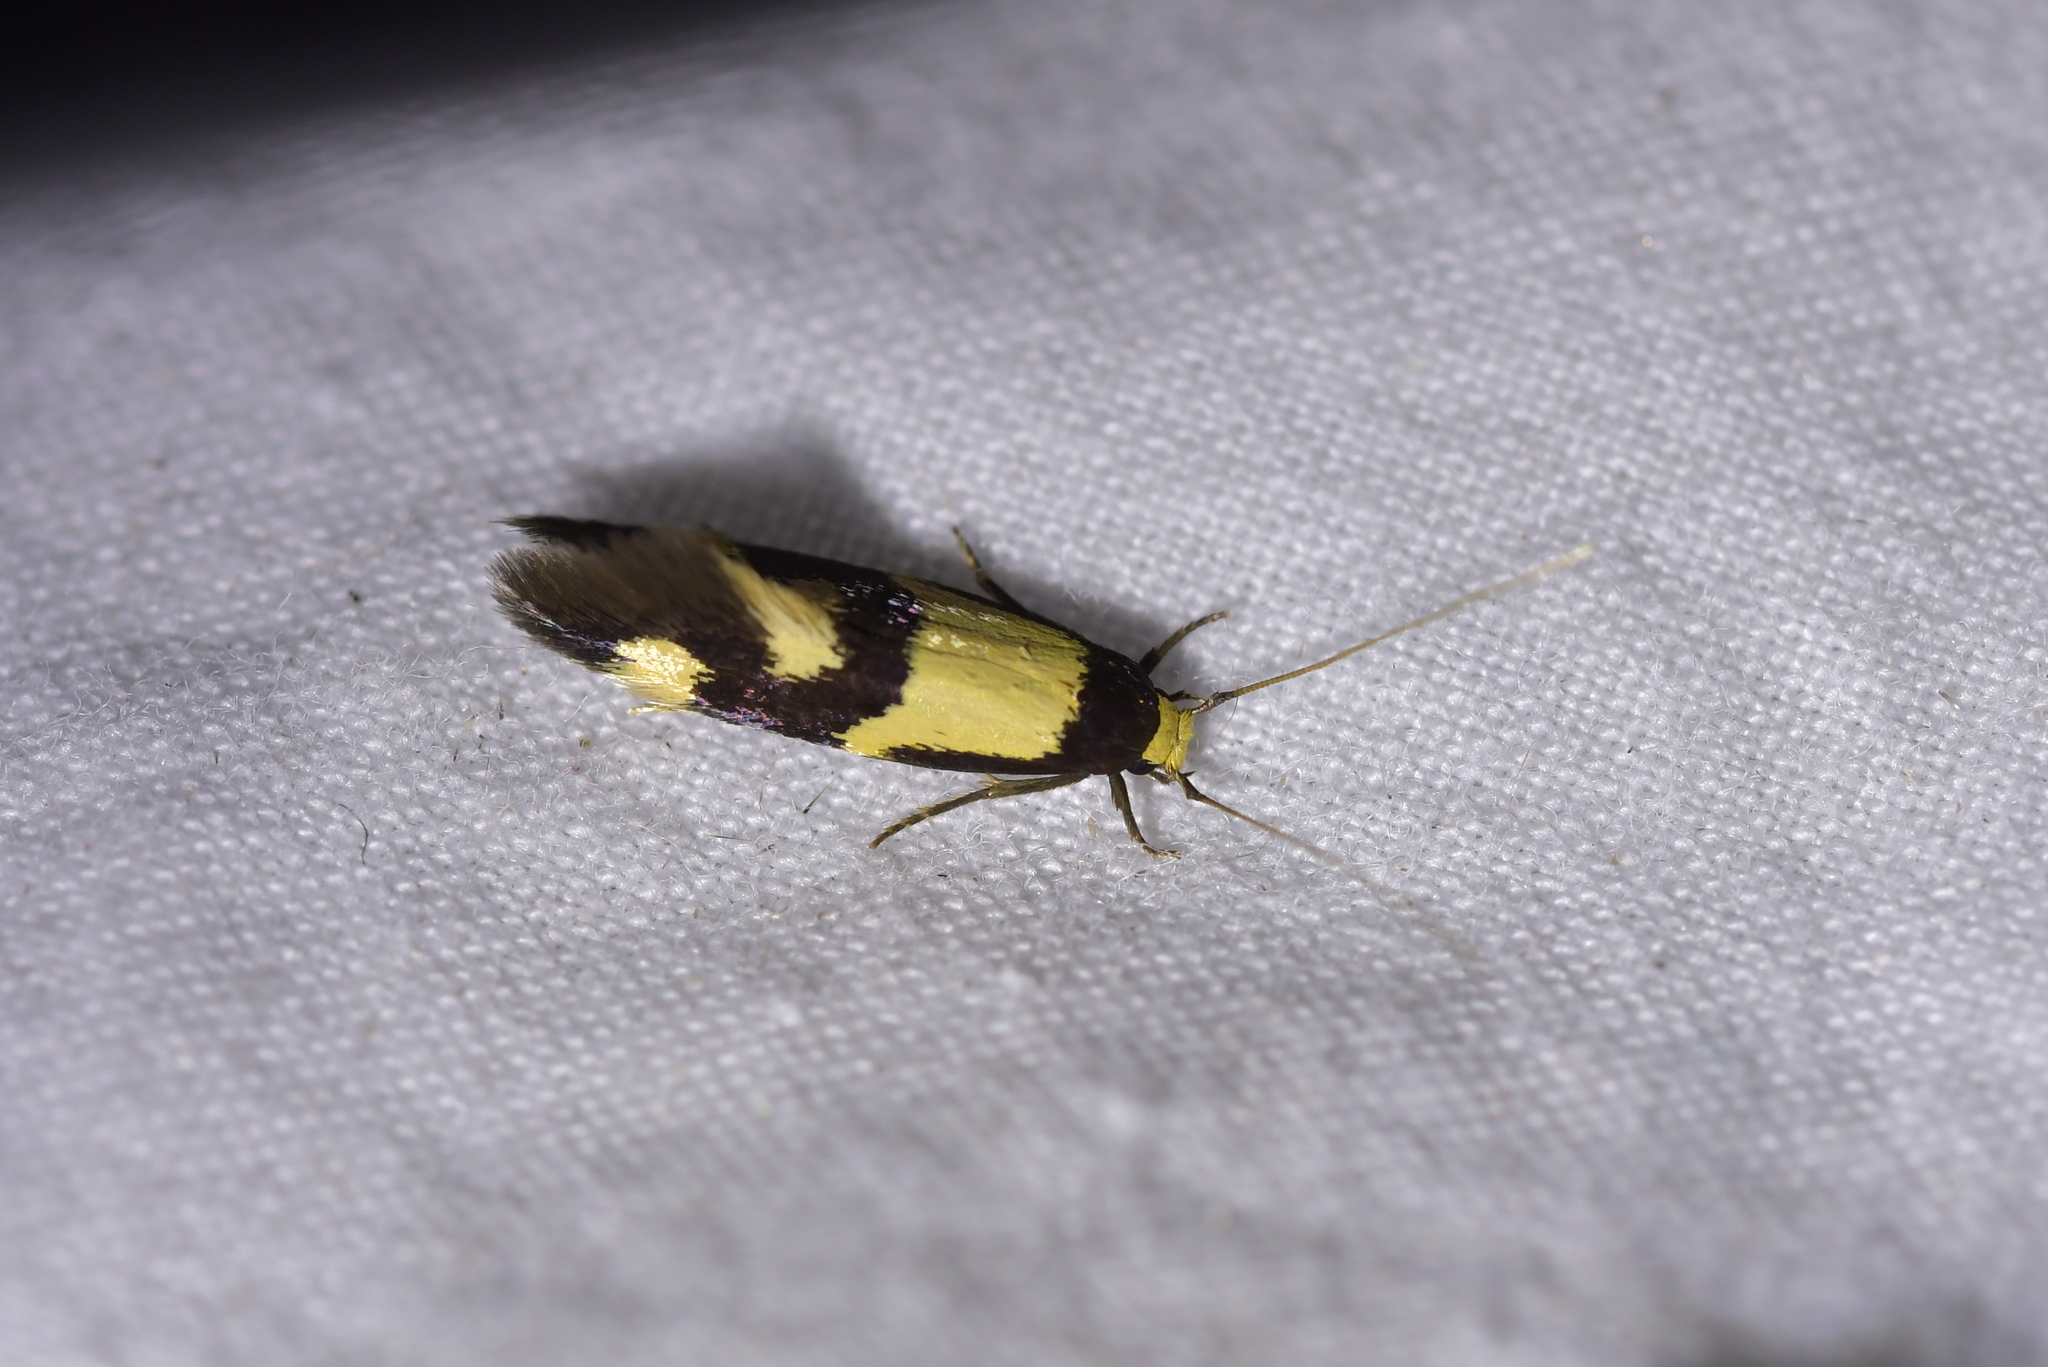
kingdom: Animalia
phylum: Arthropoda
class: Insecta
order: Lepidoptera
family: Tineidae
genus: Opogona
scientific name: Opogona comptella
